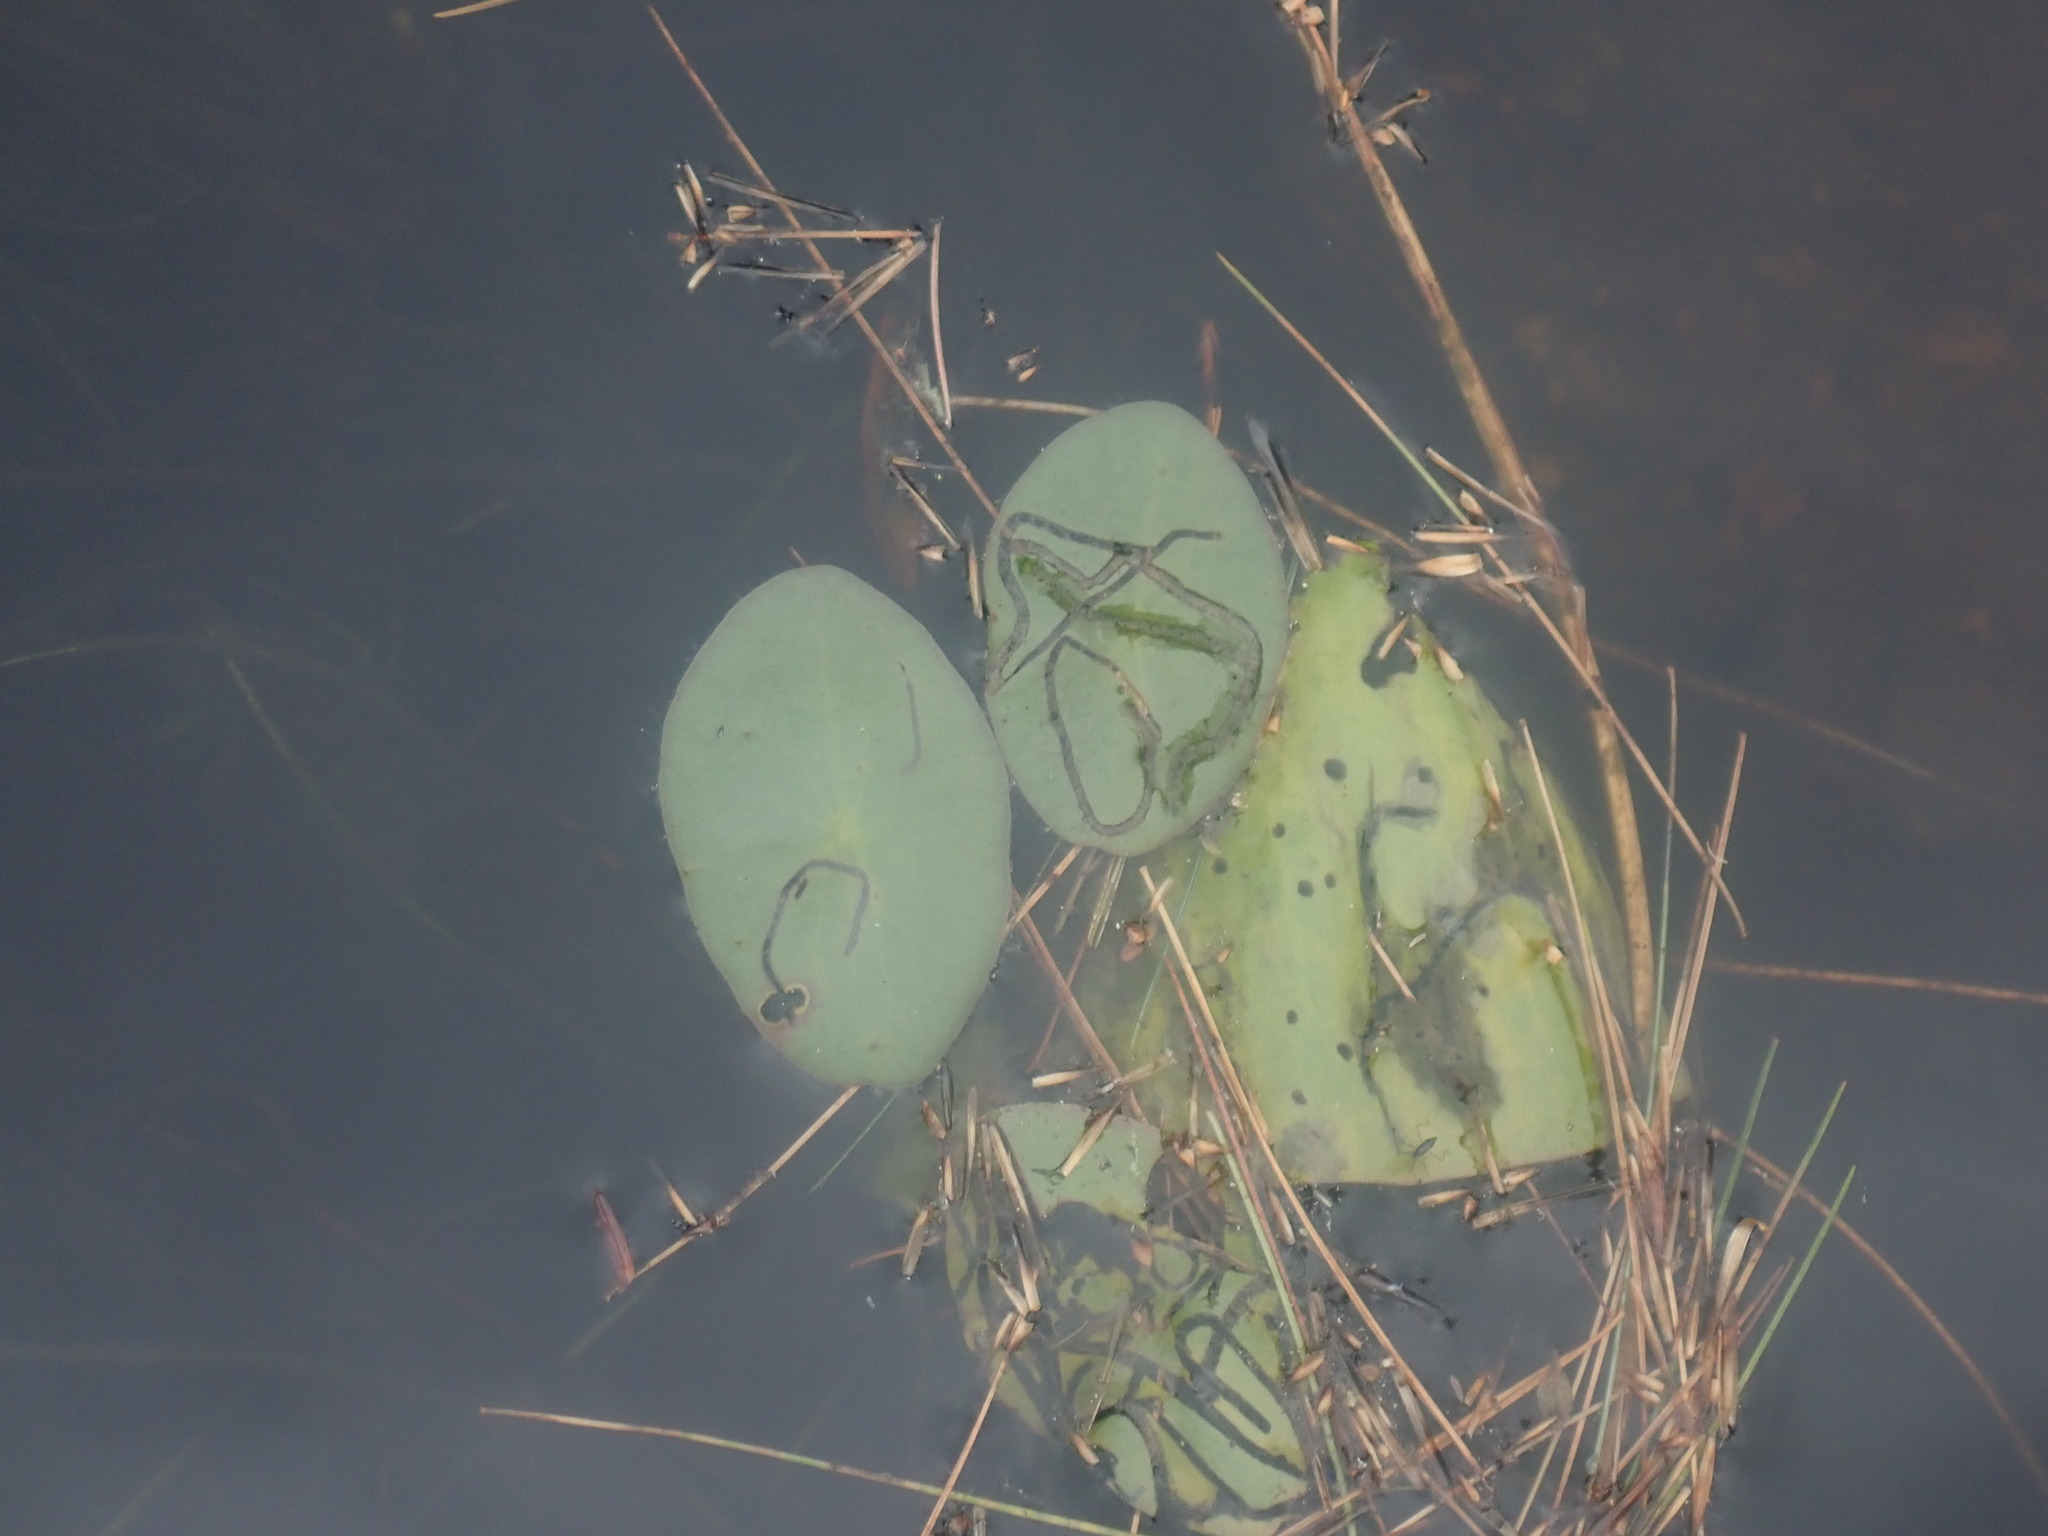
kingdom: Plantae
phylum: Tracheophyta
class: Magnoliopsida
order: Nymphaeales
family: Cabombaceae
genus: Brasenia
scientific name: Brasenia schreberi
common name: Water-shield
